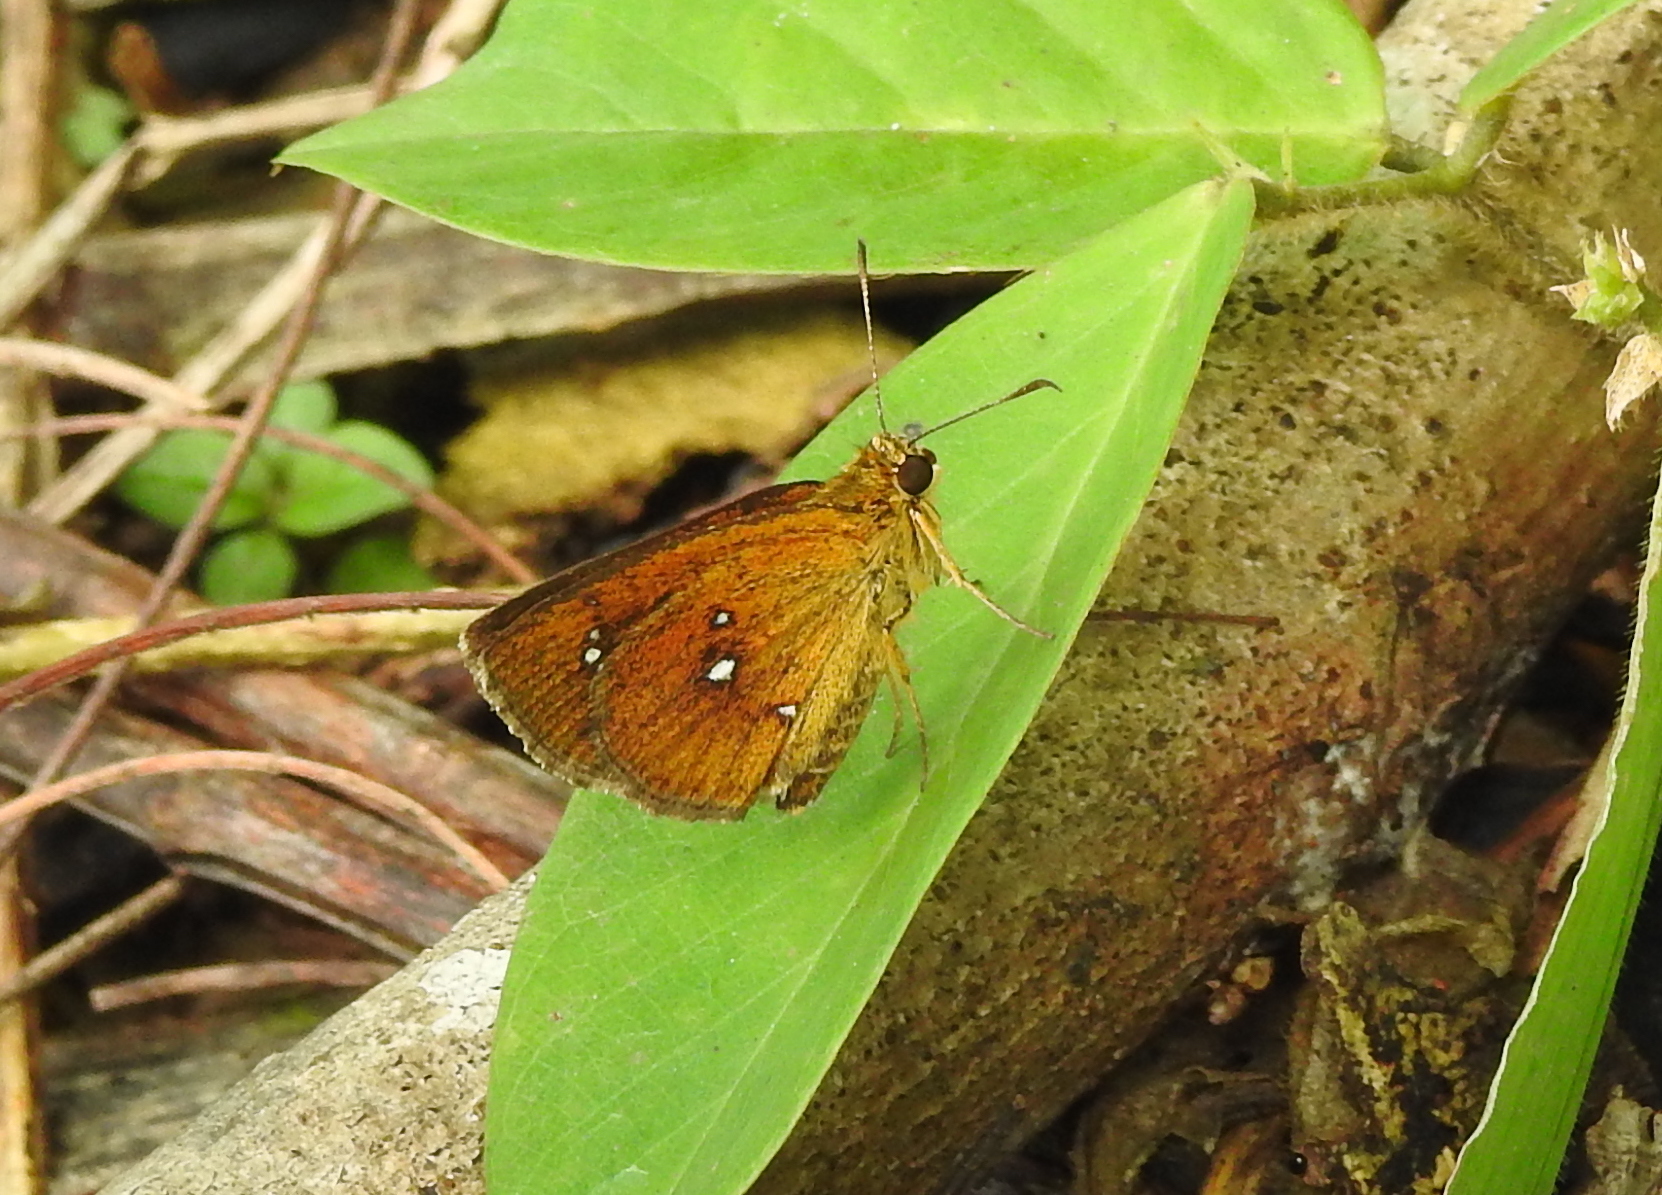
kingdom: Animalia
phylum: Arthropoda
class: Insecta
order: Lepidoptera
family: Hesperiidae
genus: Iambrix
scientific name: Iambrix salsala
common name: Chestnut bob
